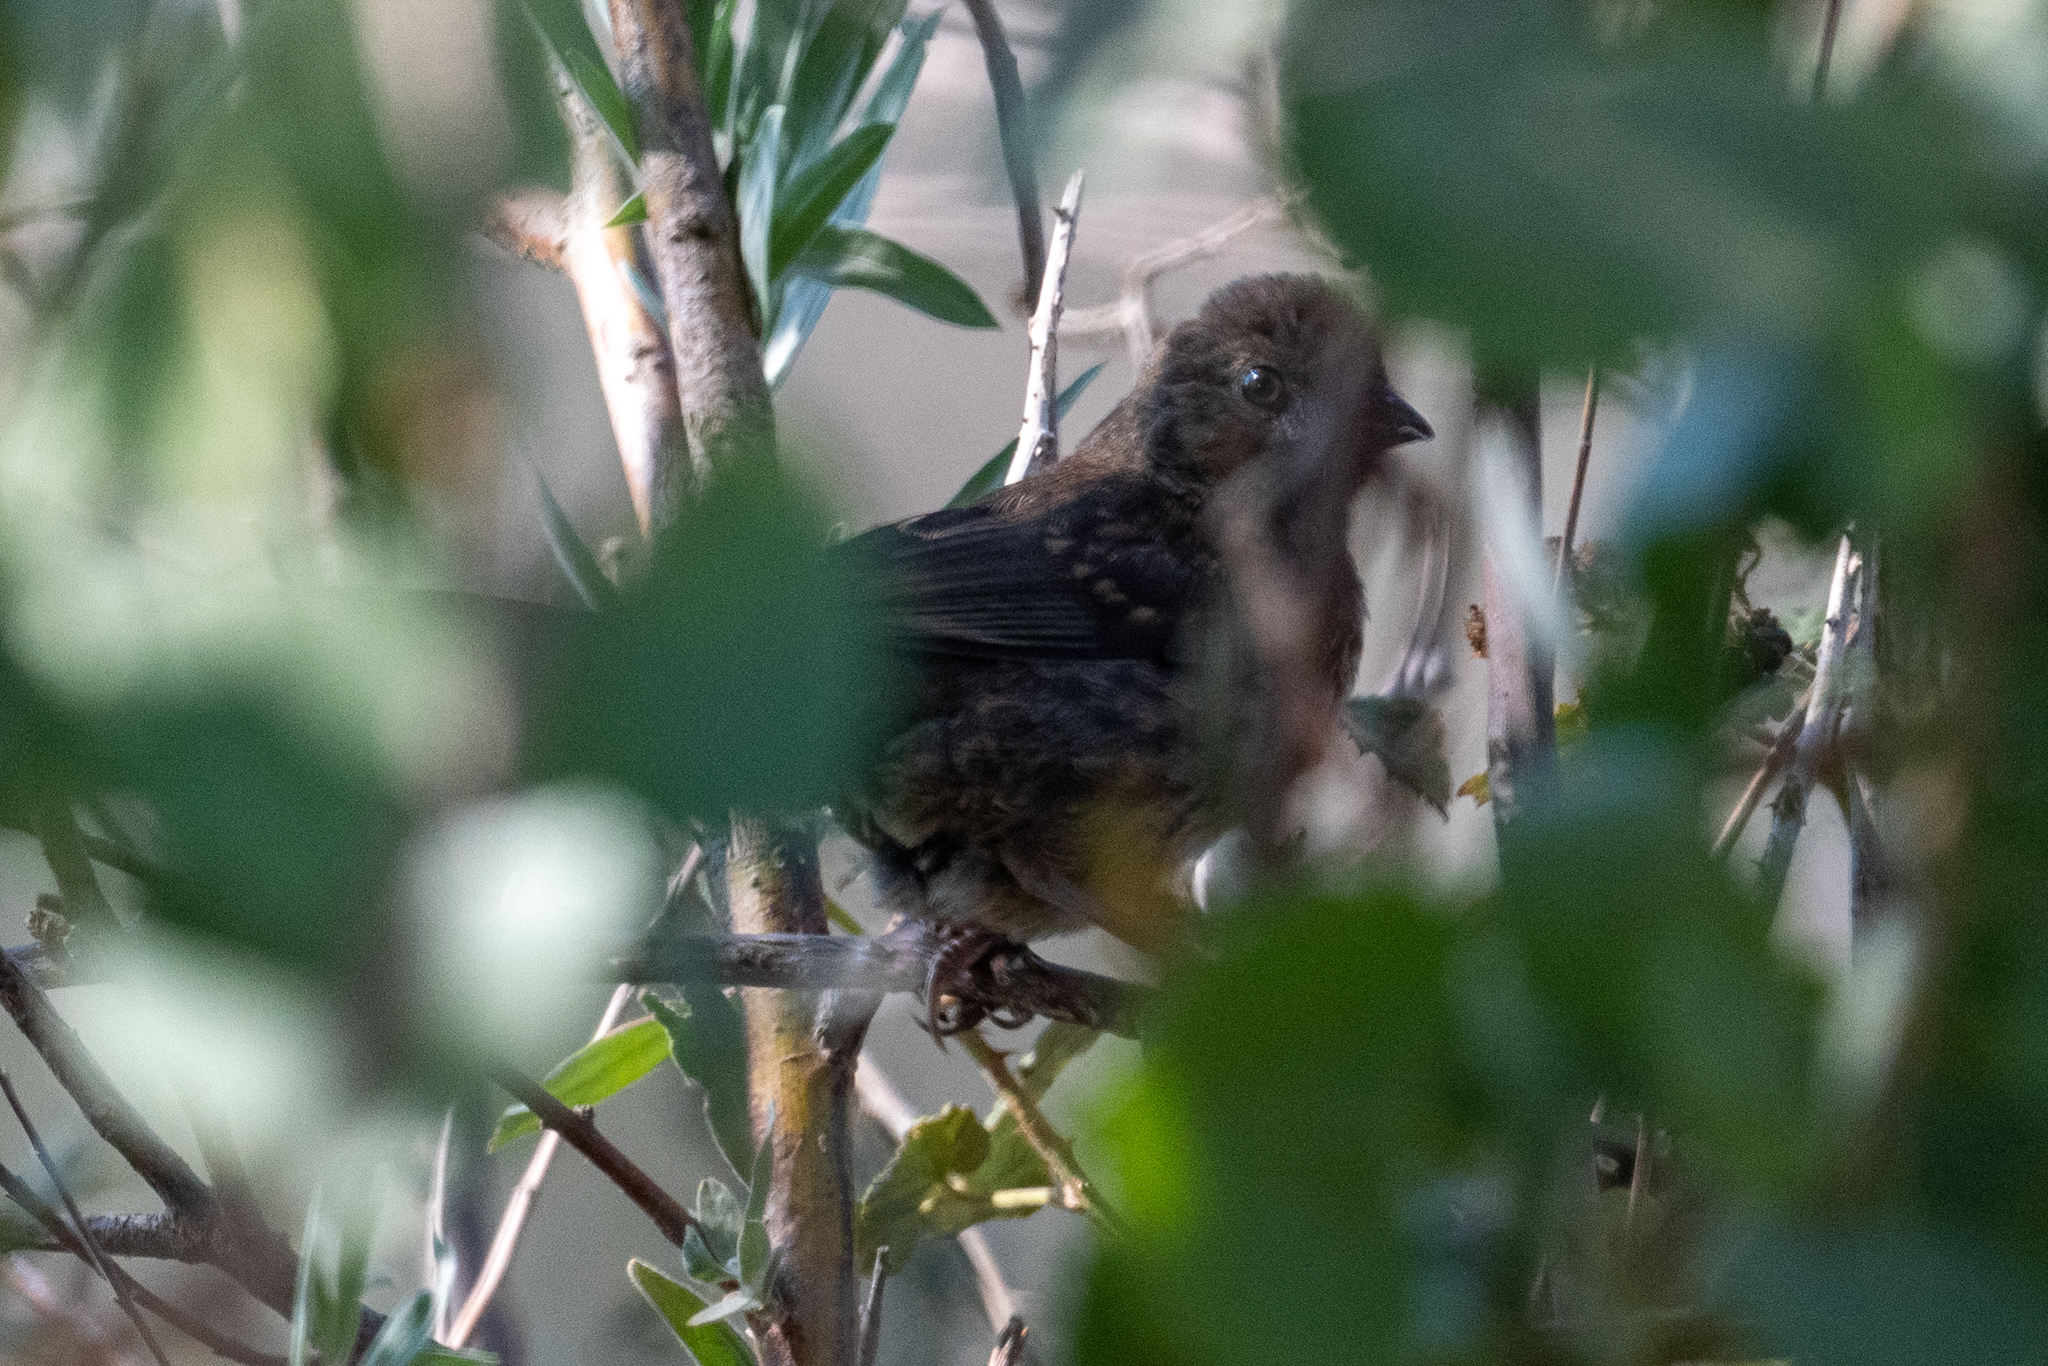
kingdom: Animalia
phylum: Chordata
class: Aves
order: Passeriformes
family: Passerellidae
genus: Pipilo
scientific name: Pipilo maculatus
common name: Spotted towhee
